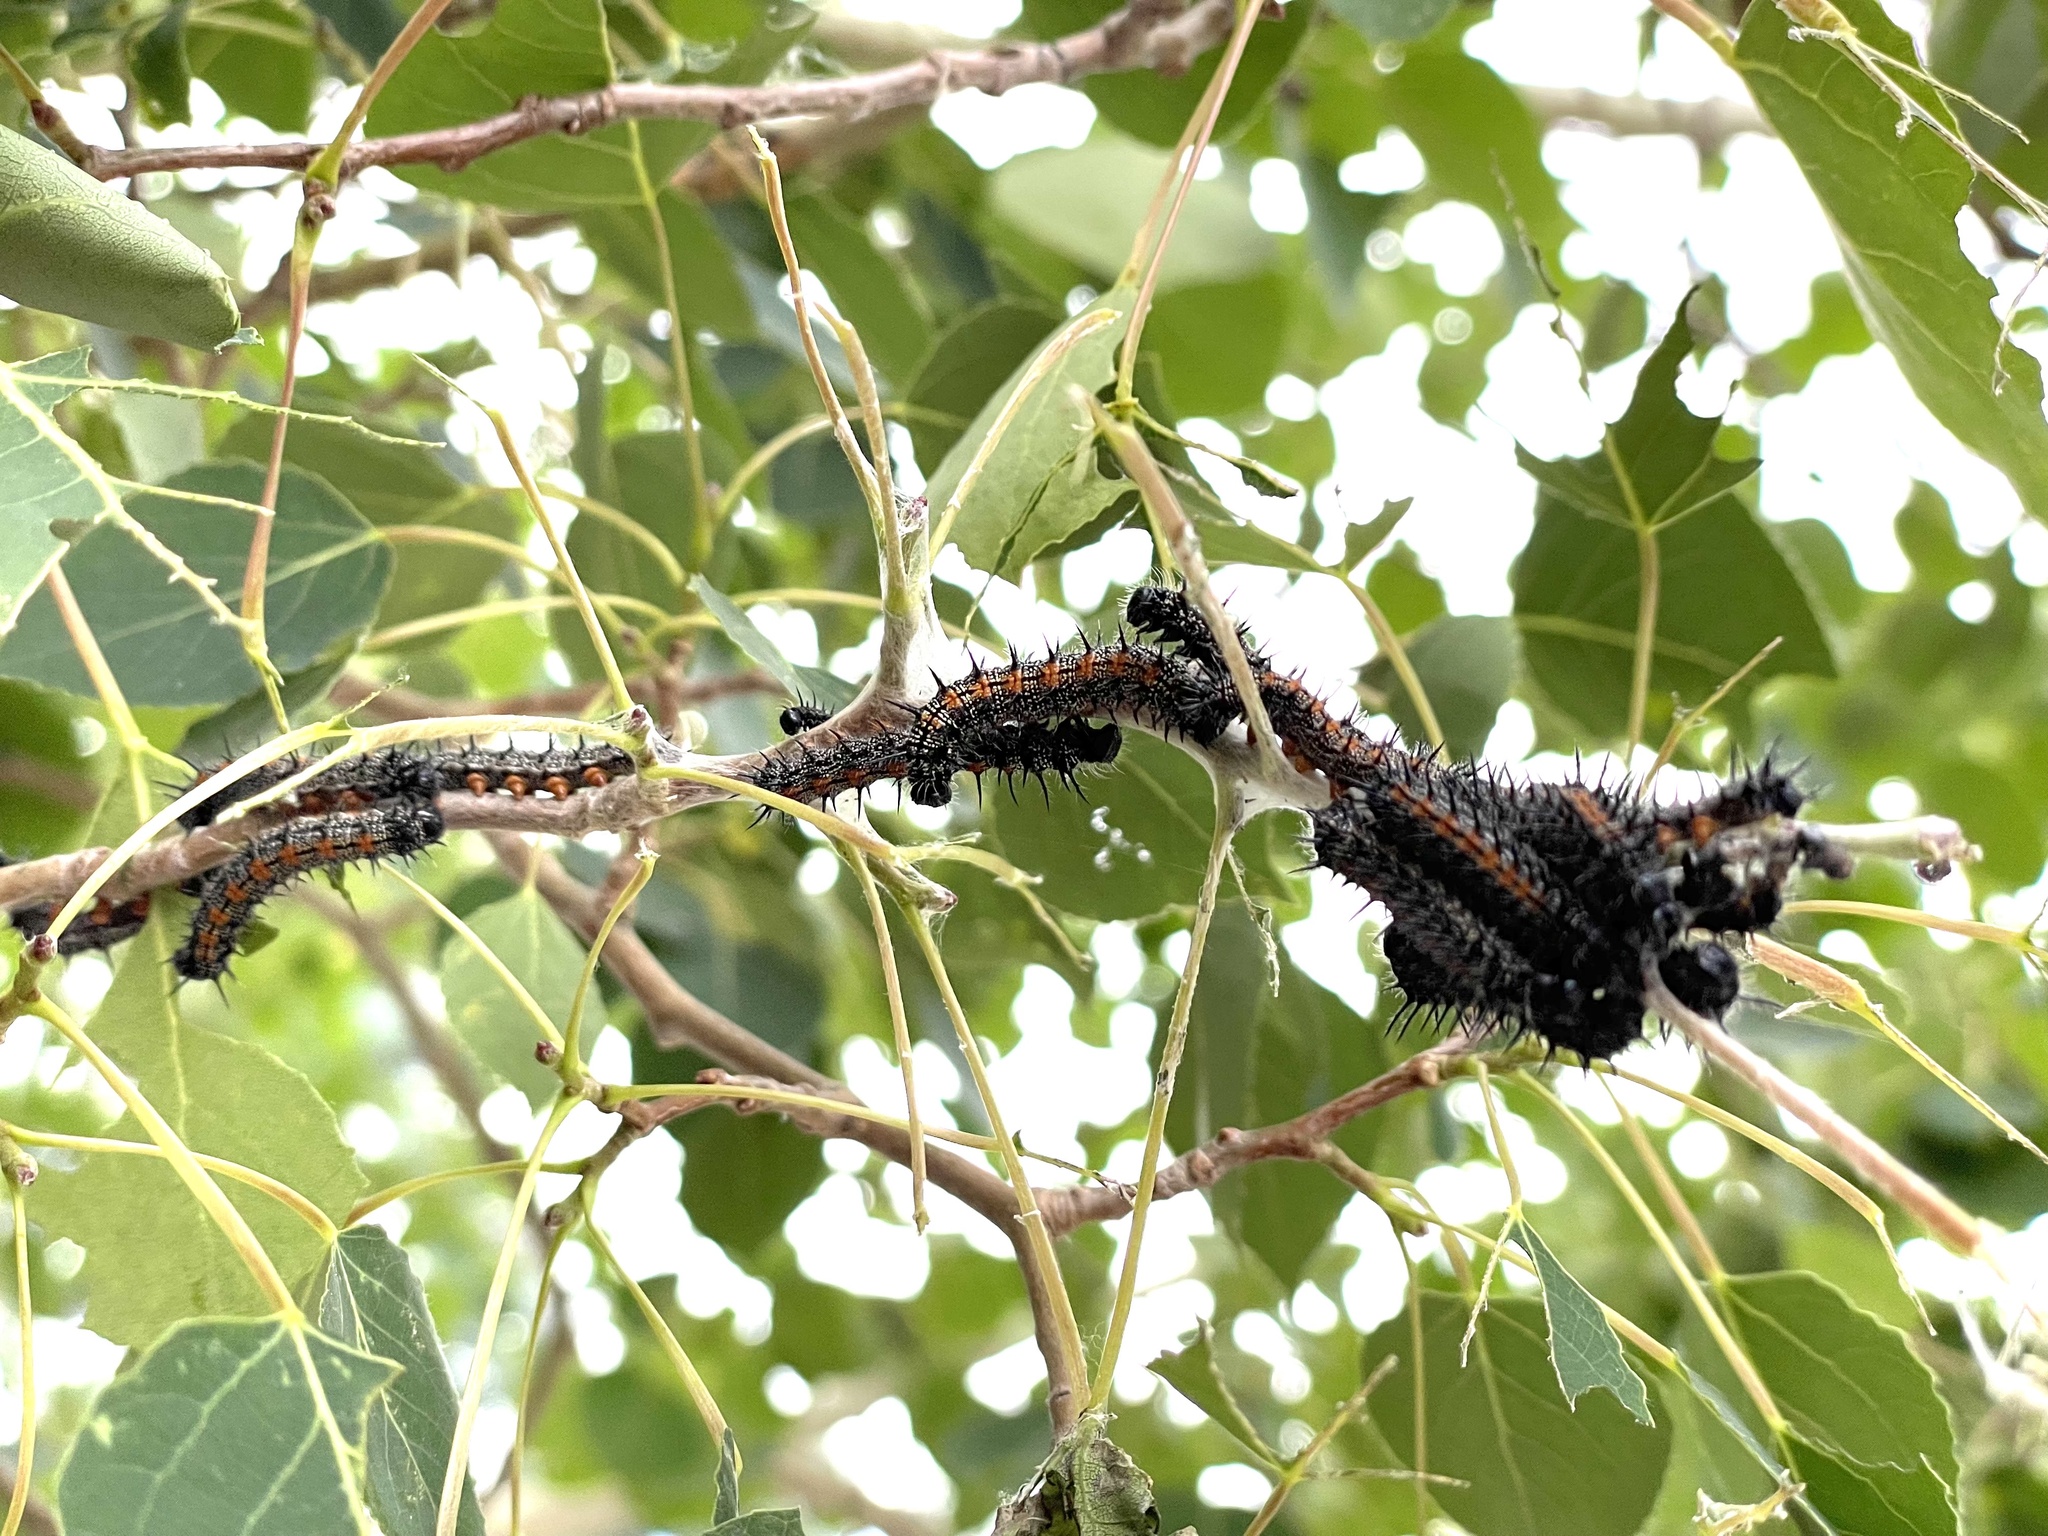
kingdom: Animalia
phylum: Arthropoda
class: Insecta
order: Lepidoptera
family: Nymphalidae
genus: Nymphalis
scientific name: Nymphalis antiopa
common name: Camberwell beauty
